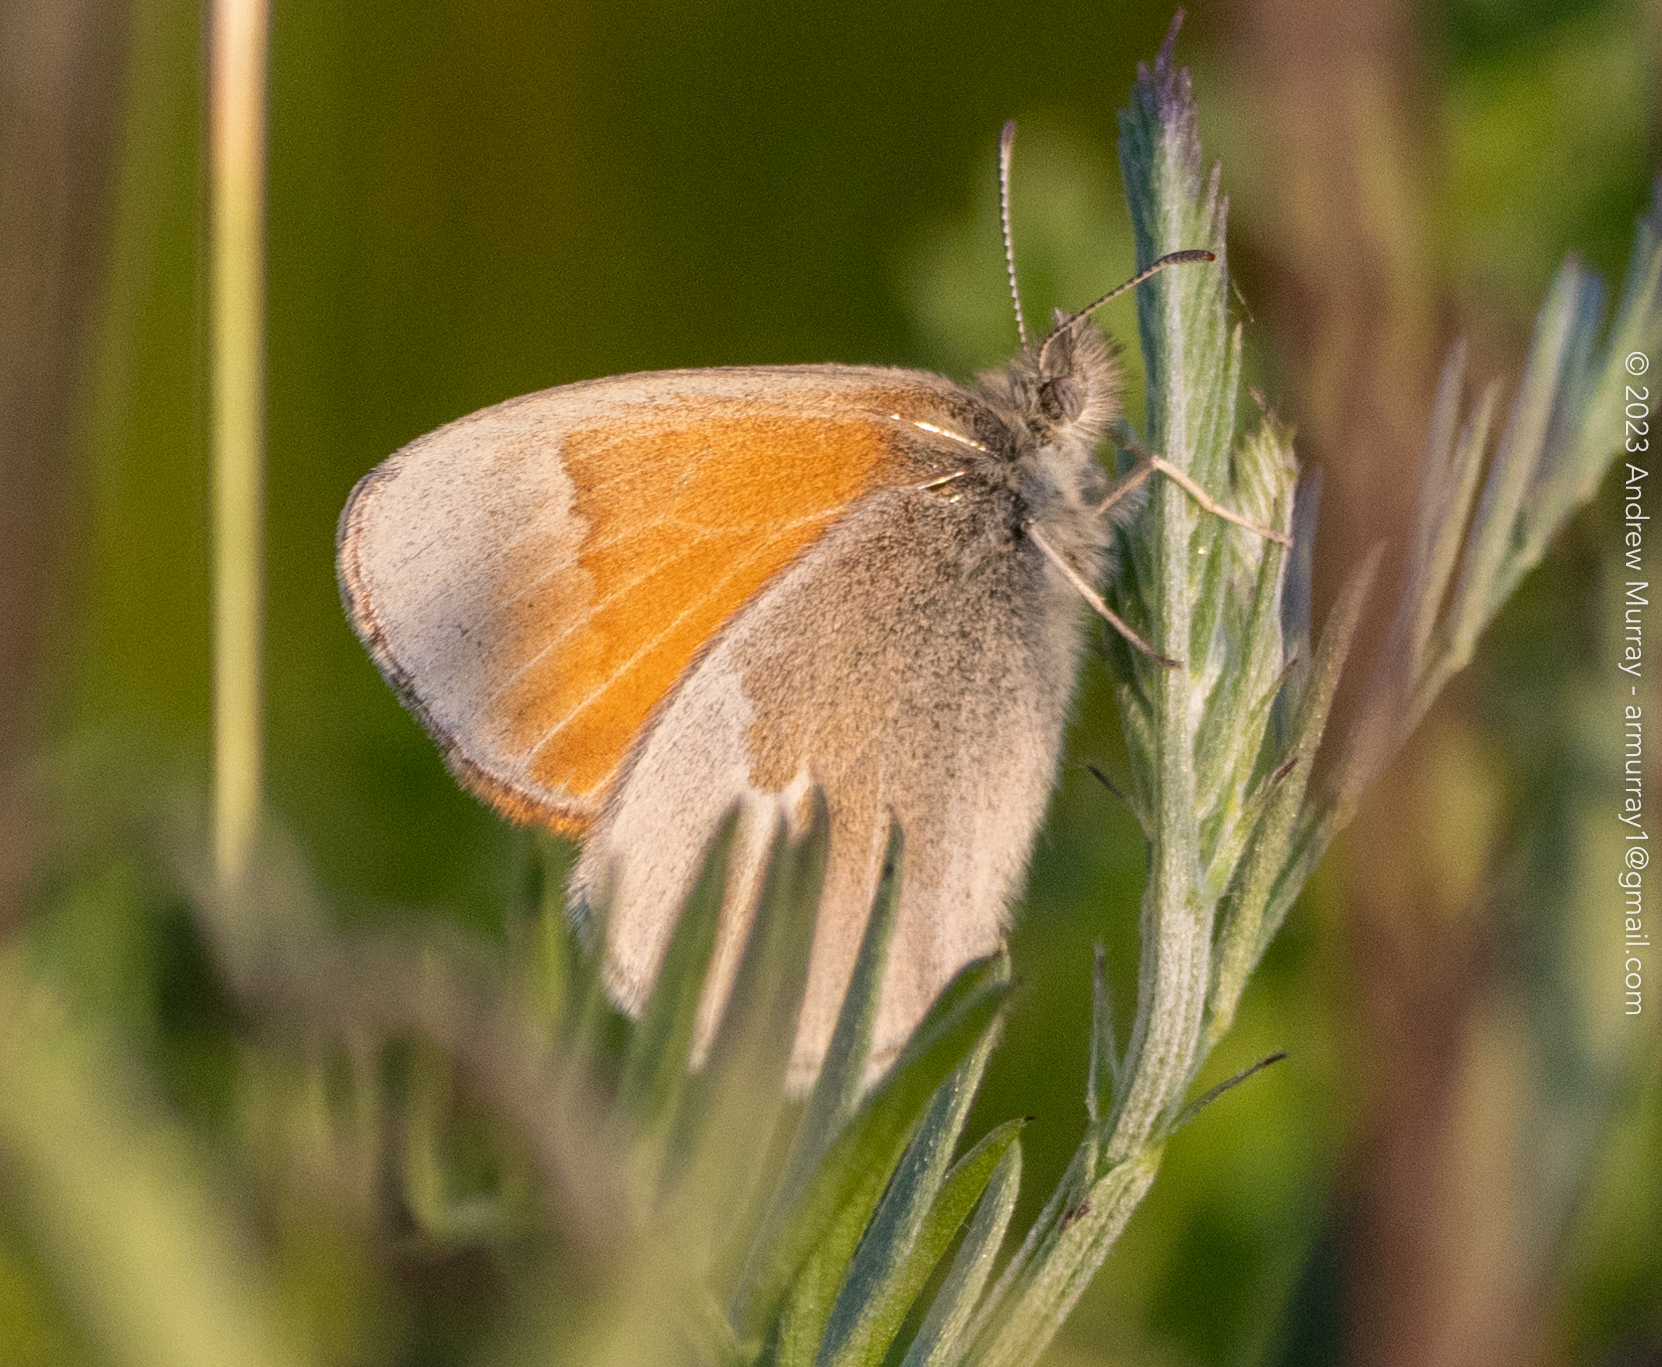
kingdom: Animalia
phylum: Arthropoda
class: Insecta
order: Lepidoptera
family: Nymphalidae
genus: Coenonympha
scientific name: Coenonympha california
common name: Common ringlet
